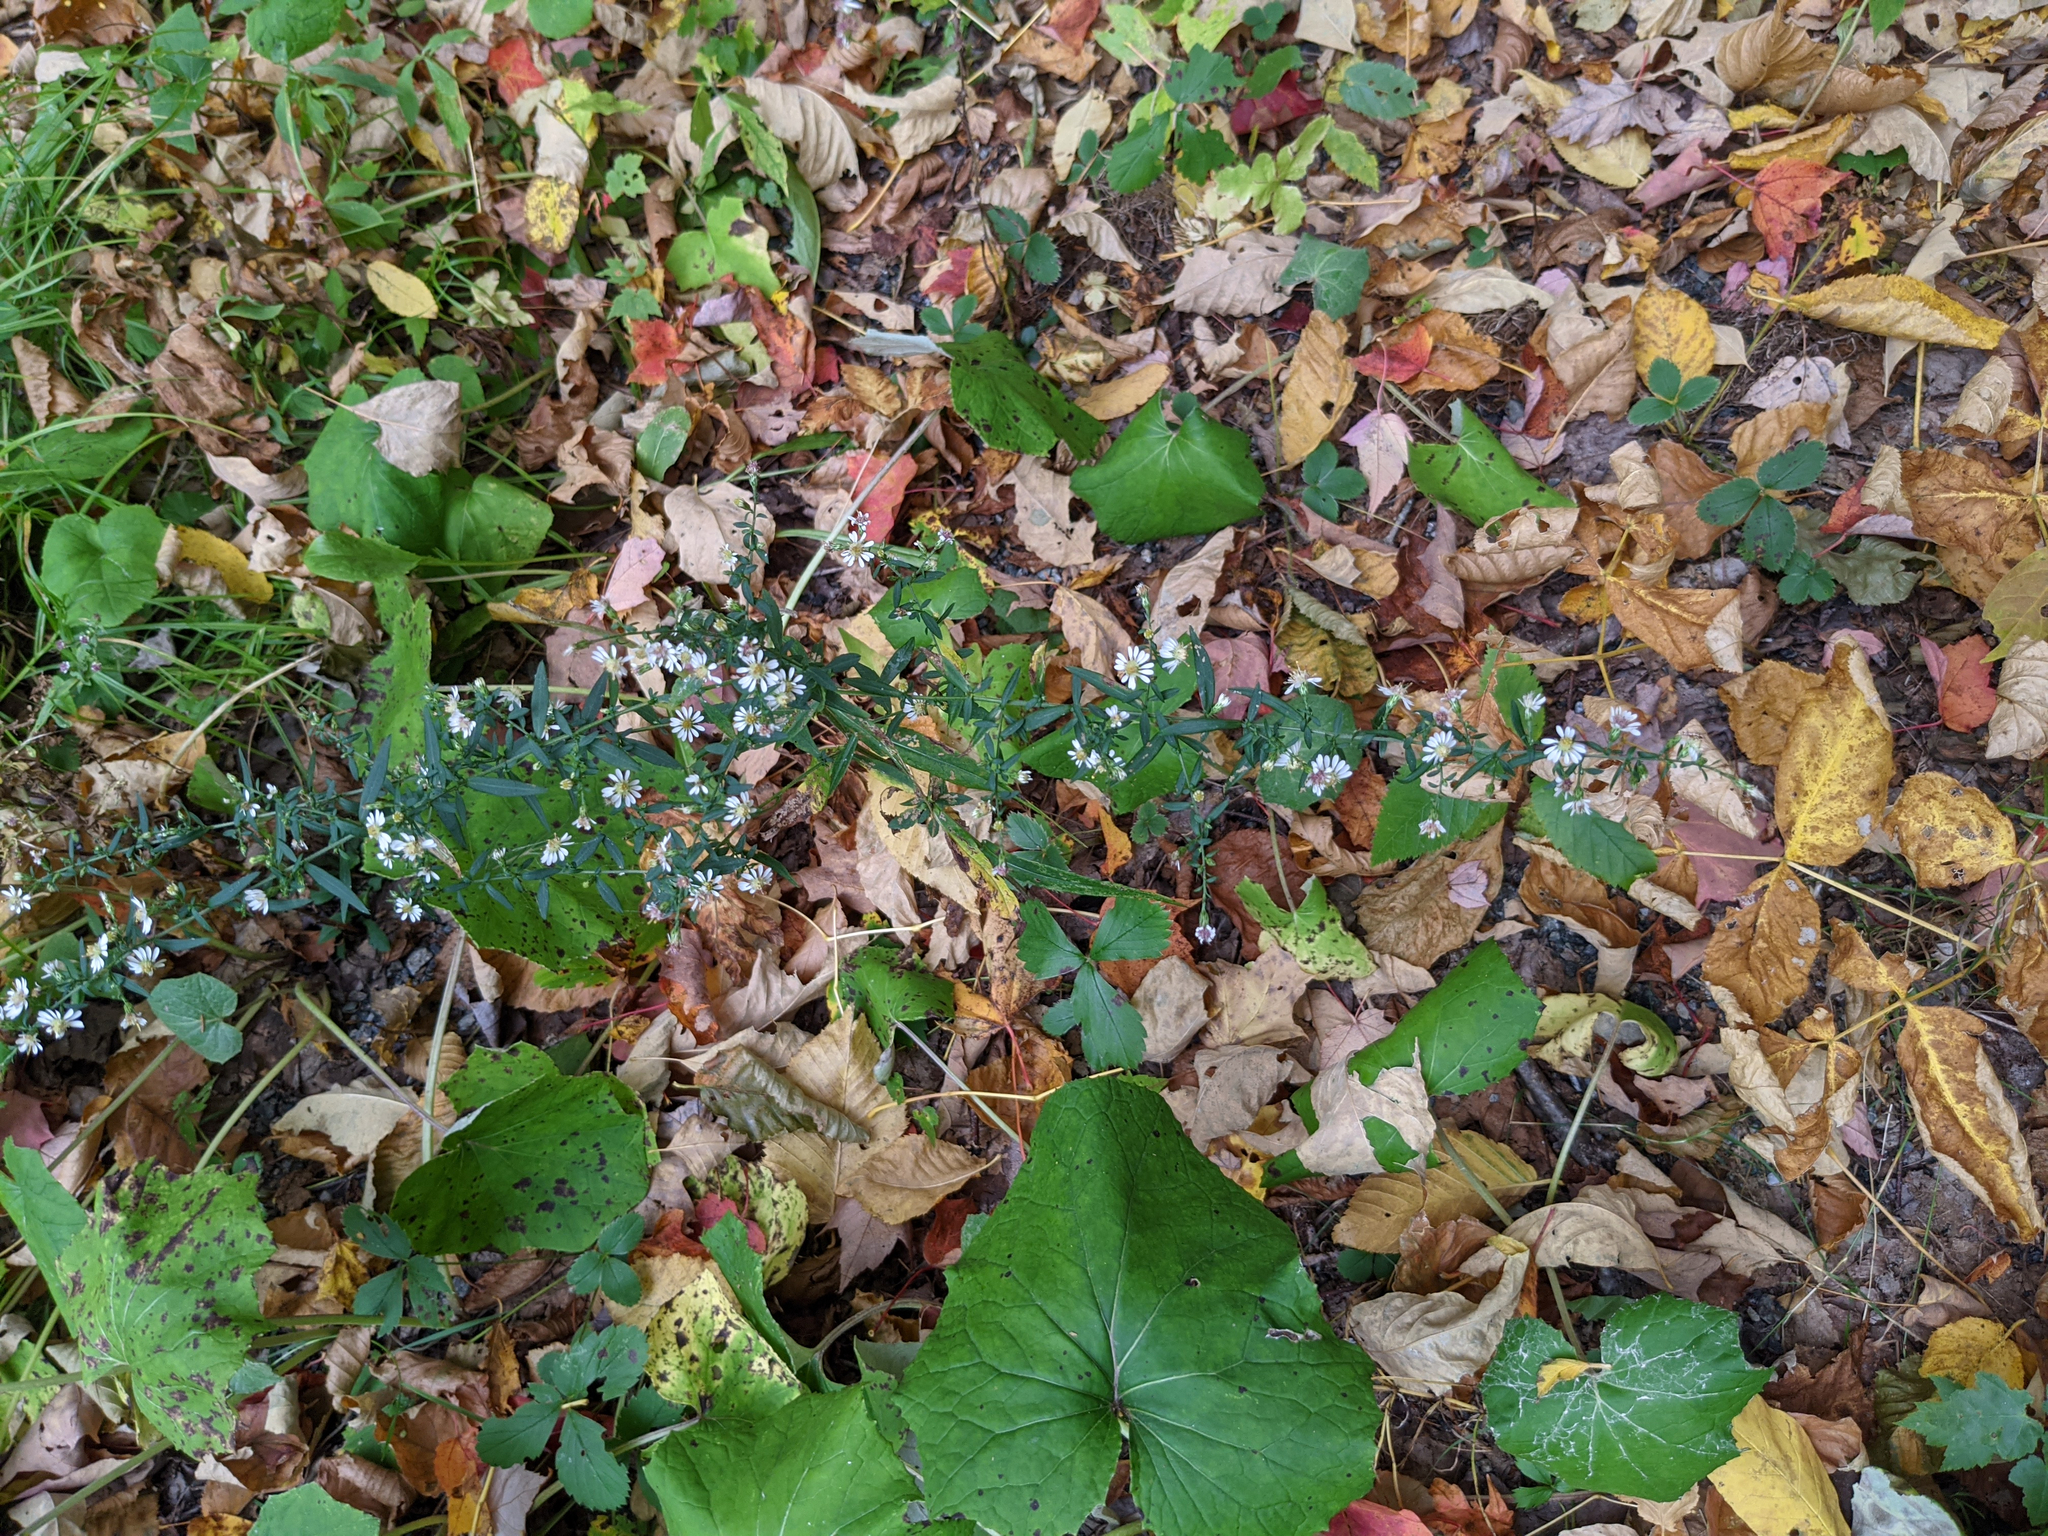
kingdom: Plantae
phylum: Tracheophyta
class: Magnoliopsida
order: Asterales
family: Asteraceae
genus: Symphyotrichum
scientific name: Symphyotrichum lateriflorum
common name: Calico aster
